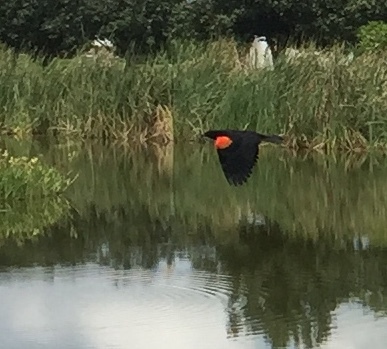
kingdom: Animalia
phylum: Chordata
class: Aves
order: Passeriformes
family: Icteridae
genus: Agelaius
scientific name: Agelaius phoeniceus
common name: Red-winged blackbird
